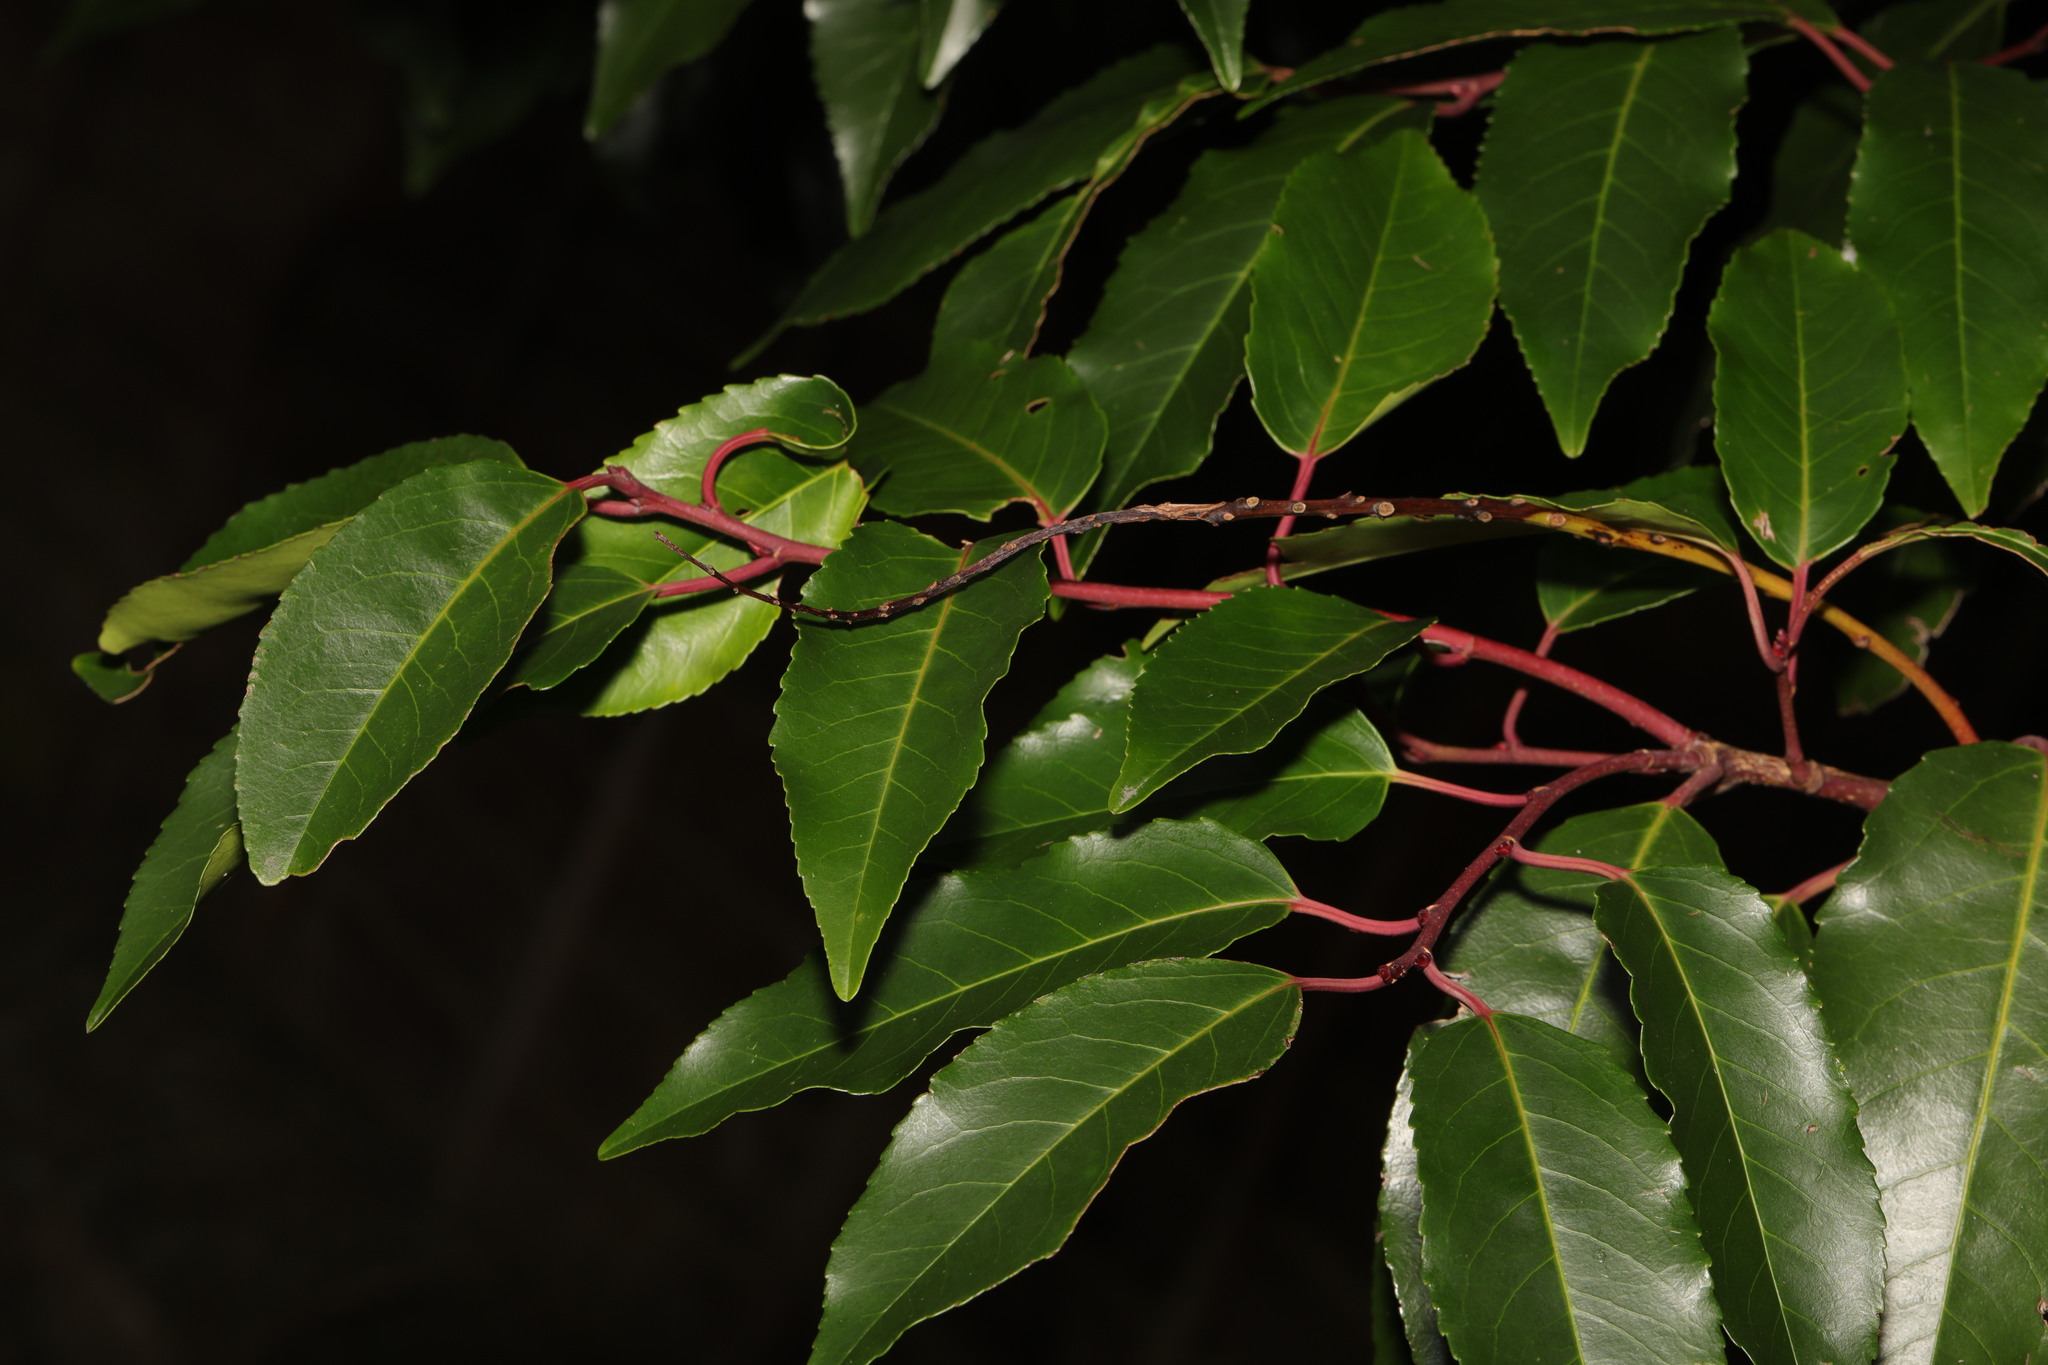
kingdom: Plantae
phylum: Tracheophyta
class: Magnoliopsida
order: Rosales
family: Rosaceae
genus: Prunus
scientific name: Prunus lusitanica
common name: Portugal laurel
